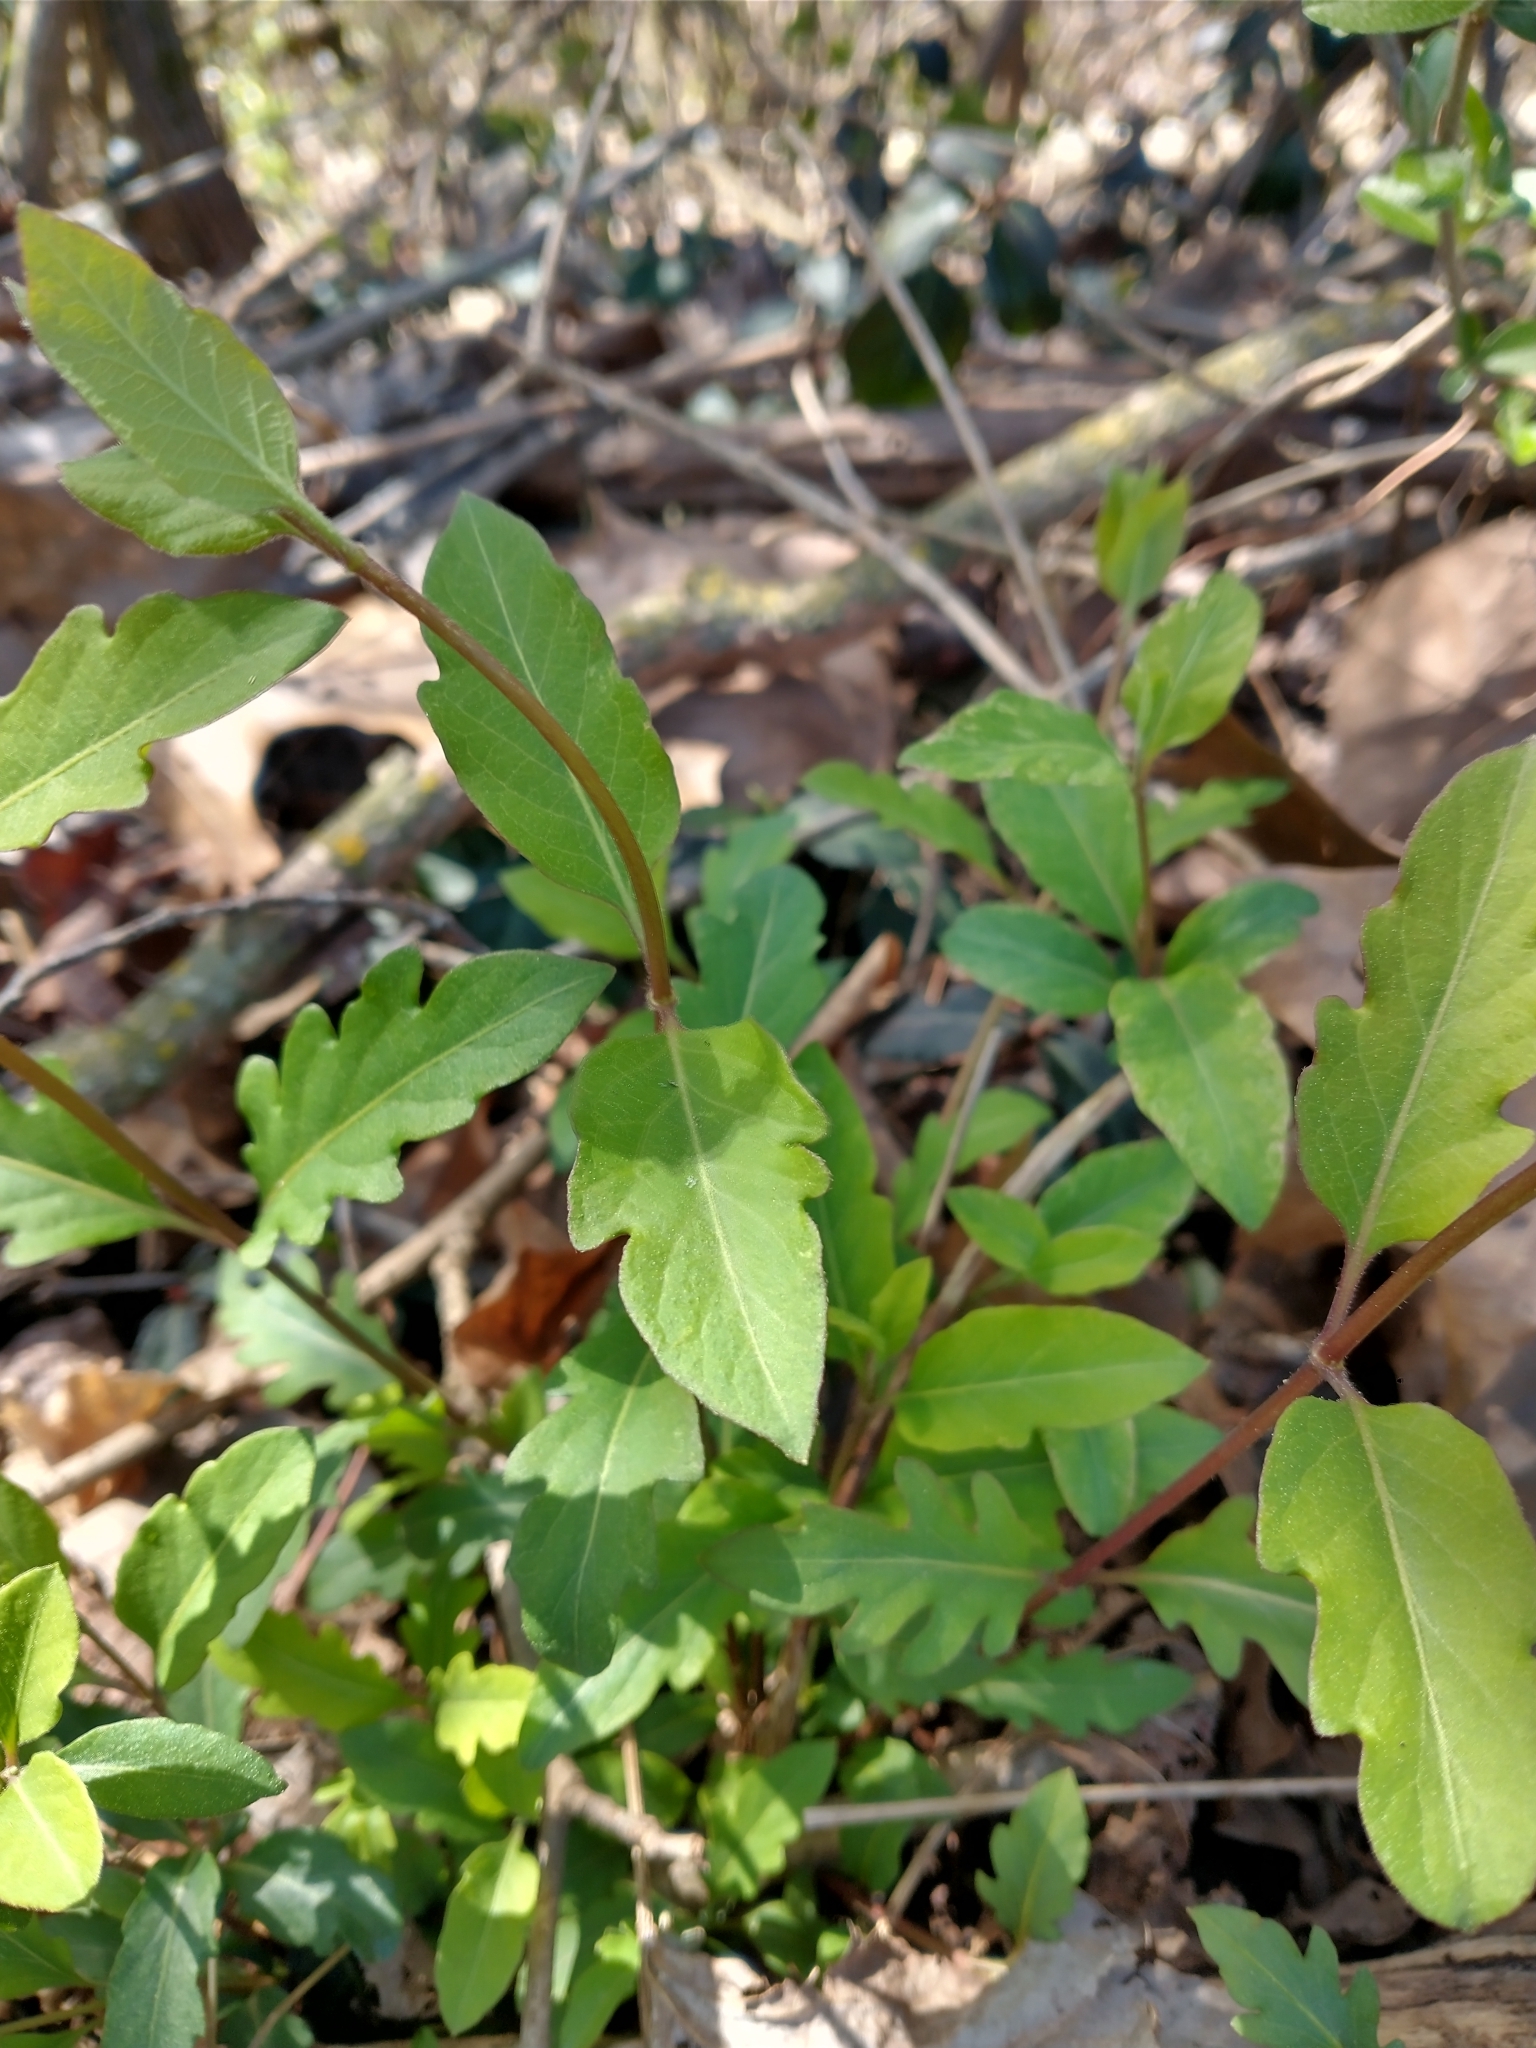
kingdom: Plantae
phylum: Tracheophyta
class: Magnoliopsida
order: Dipsacales
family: Caprifoliaceae
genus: Lonicera
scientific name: Lonicera japonica
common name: Japanese honeysuckle
